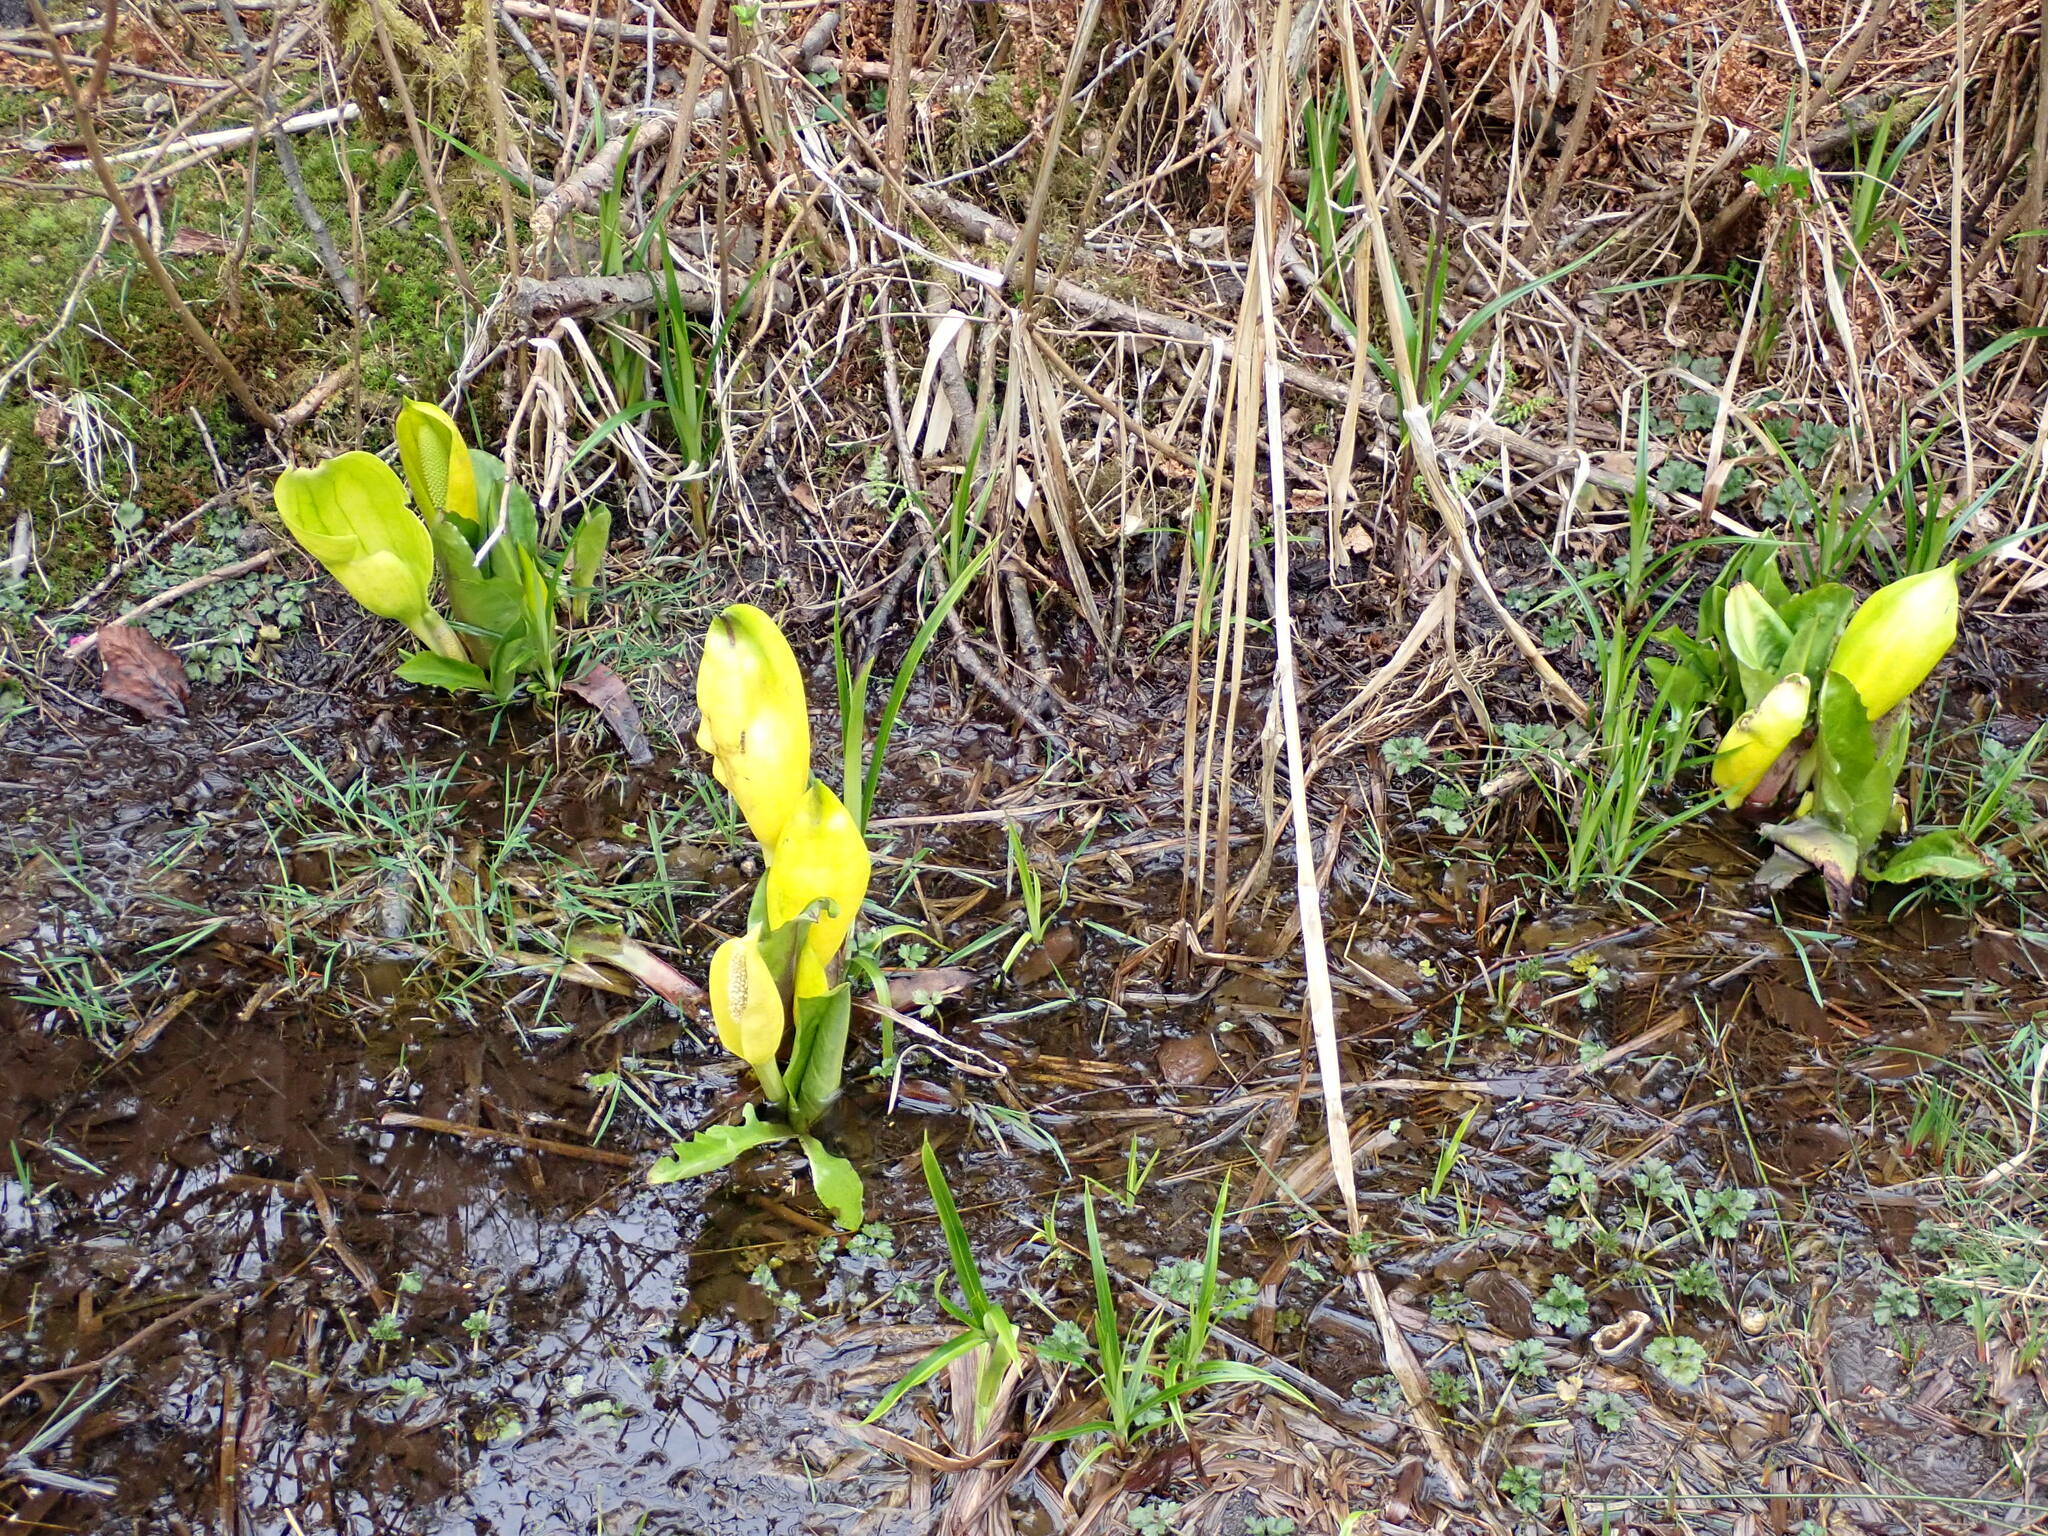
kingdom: Plantae
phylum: Tracheophyta
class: Liliopsida
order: Alismatales
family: Araceae
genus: Lysichiton
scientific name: Lysichiton americanus
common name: American skunk cabbage
